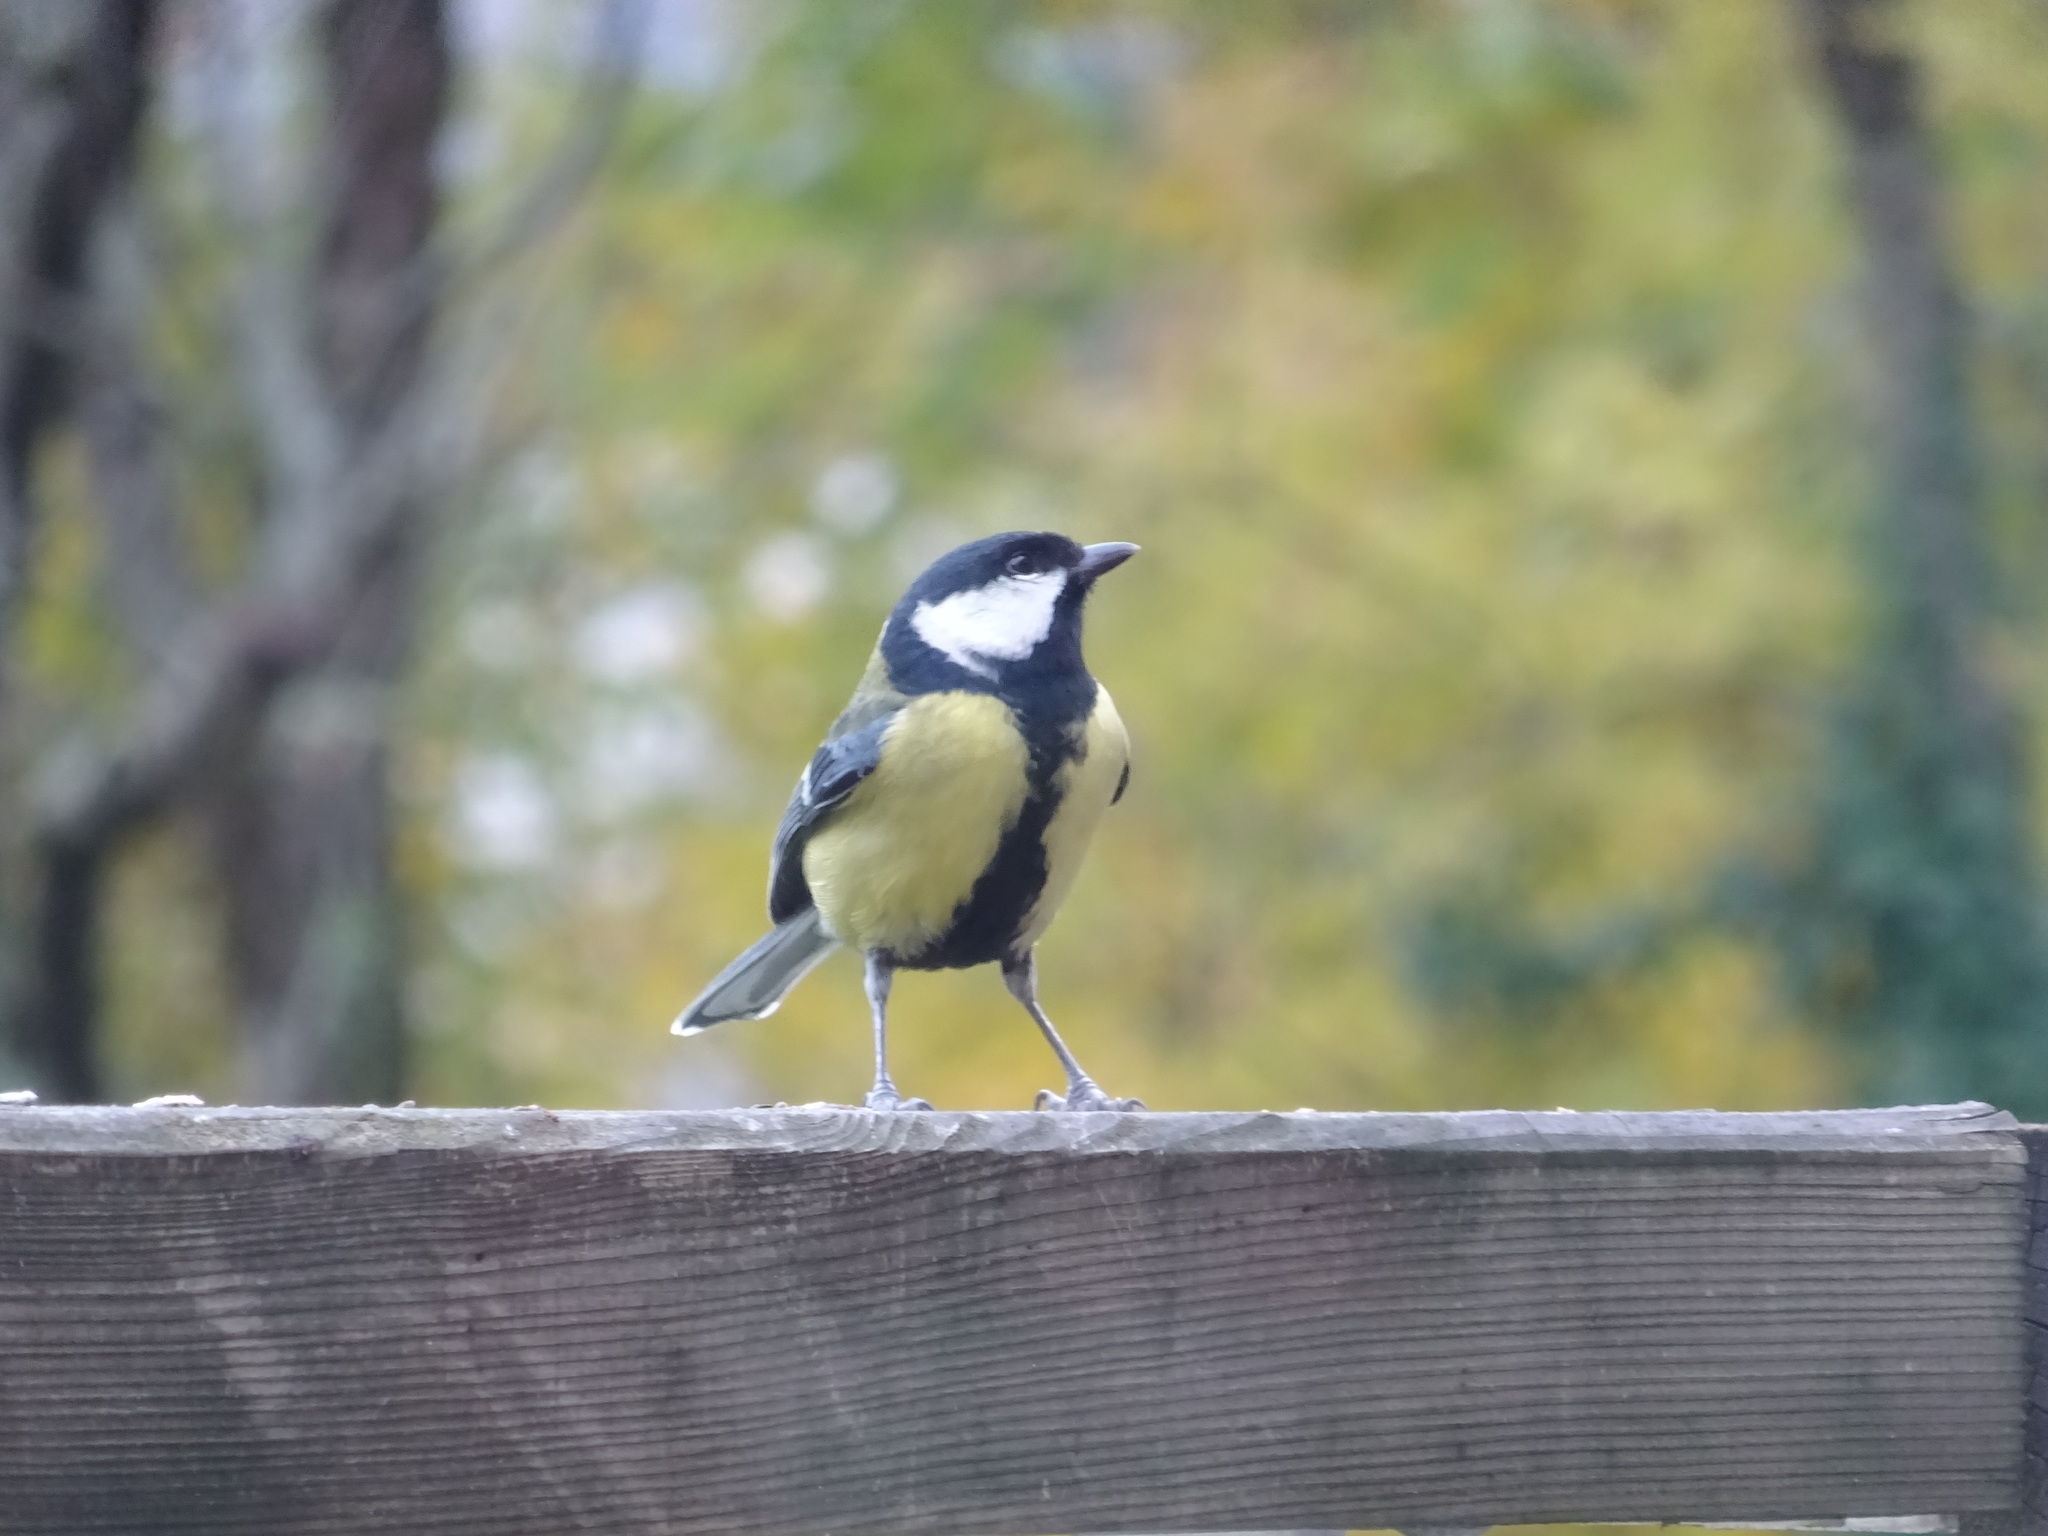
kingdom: Animalia
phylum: Chordata
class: Aves
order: Passeriformes
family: Paridae
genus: Parus
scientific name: Parus major
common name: Great tit
